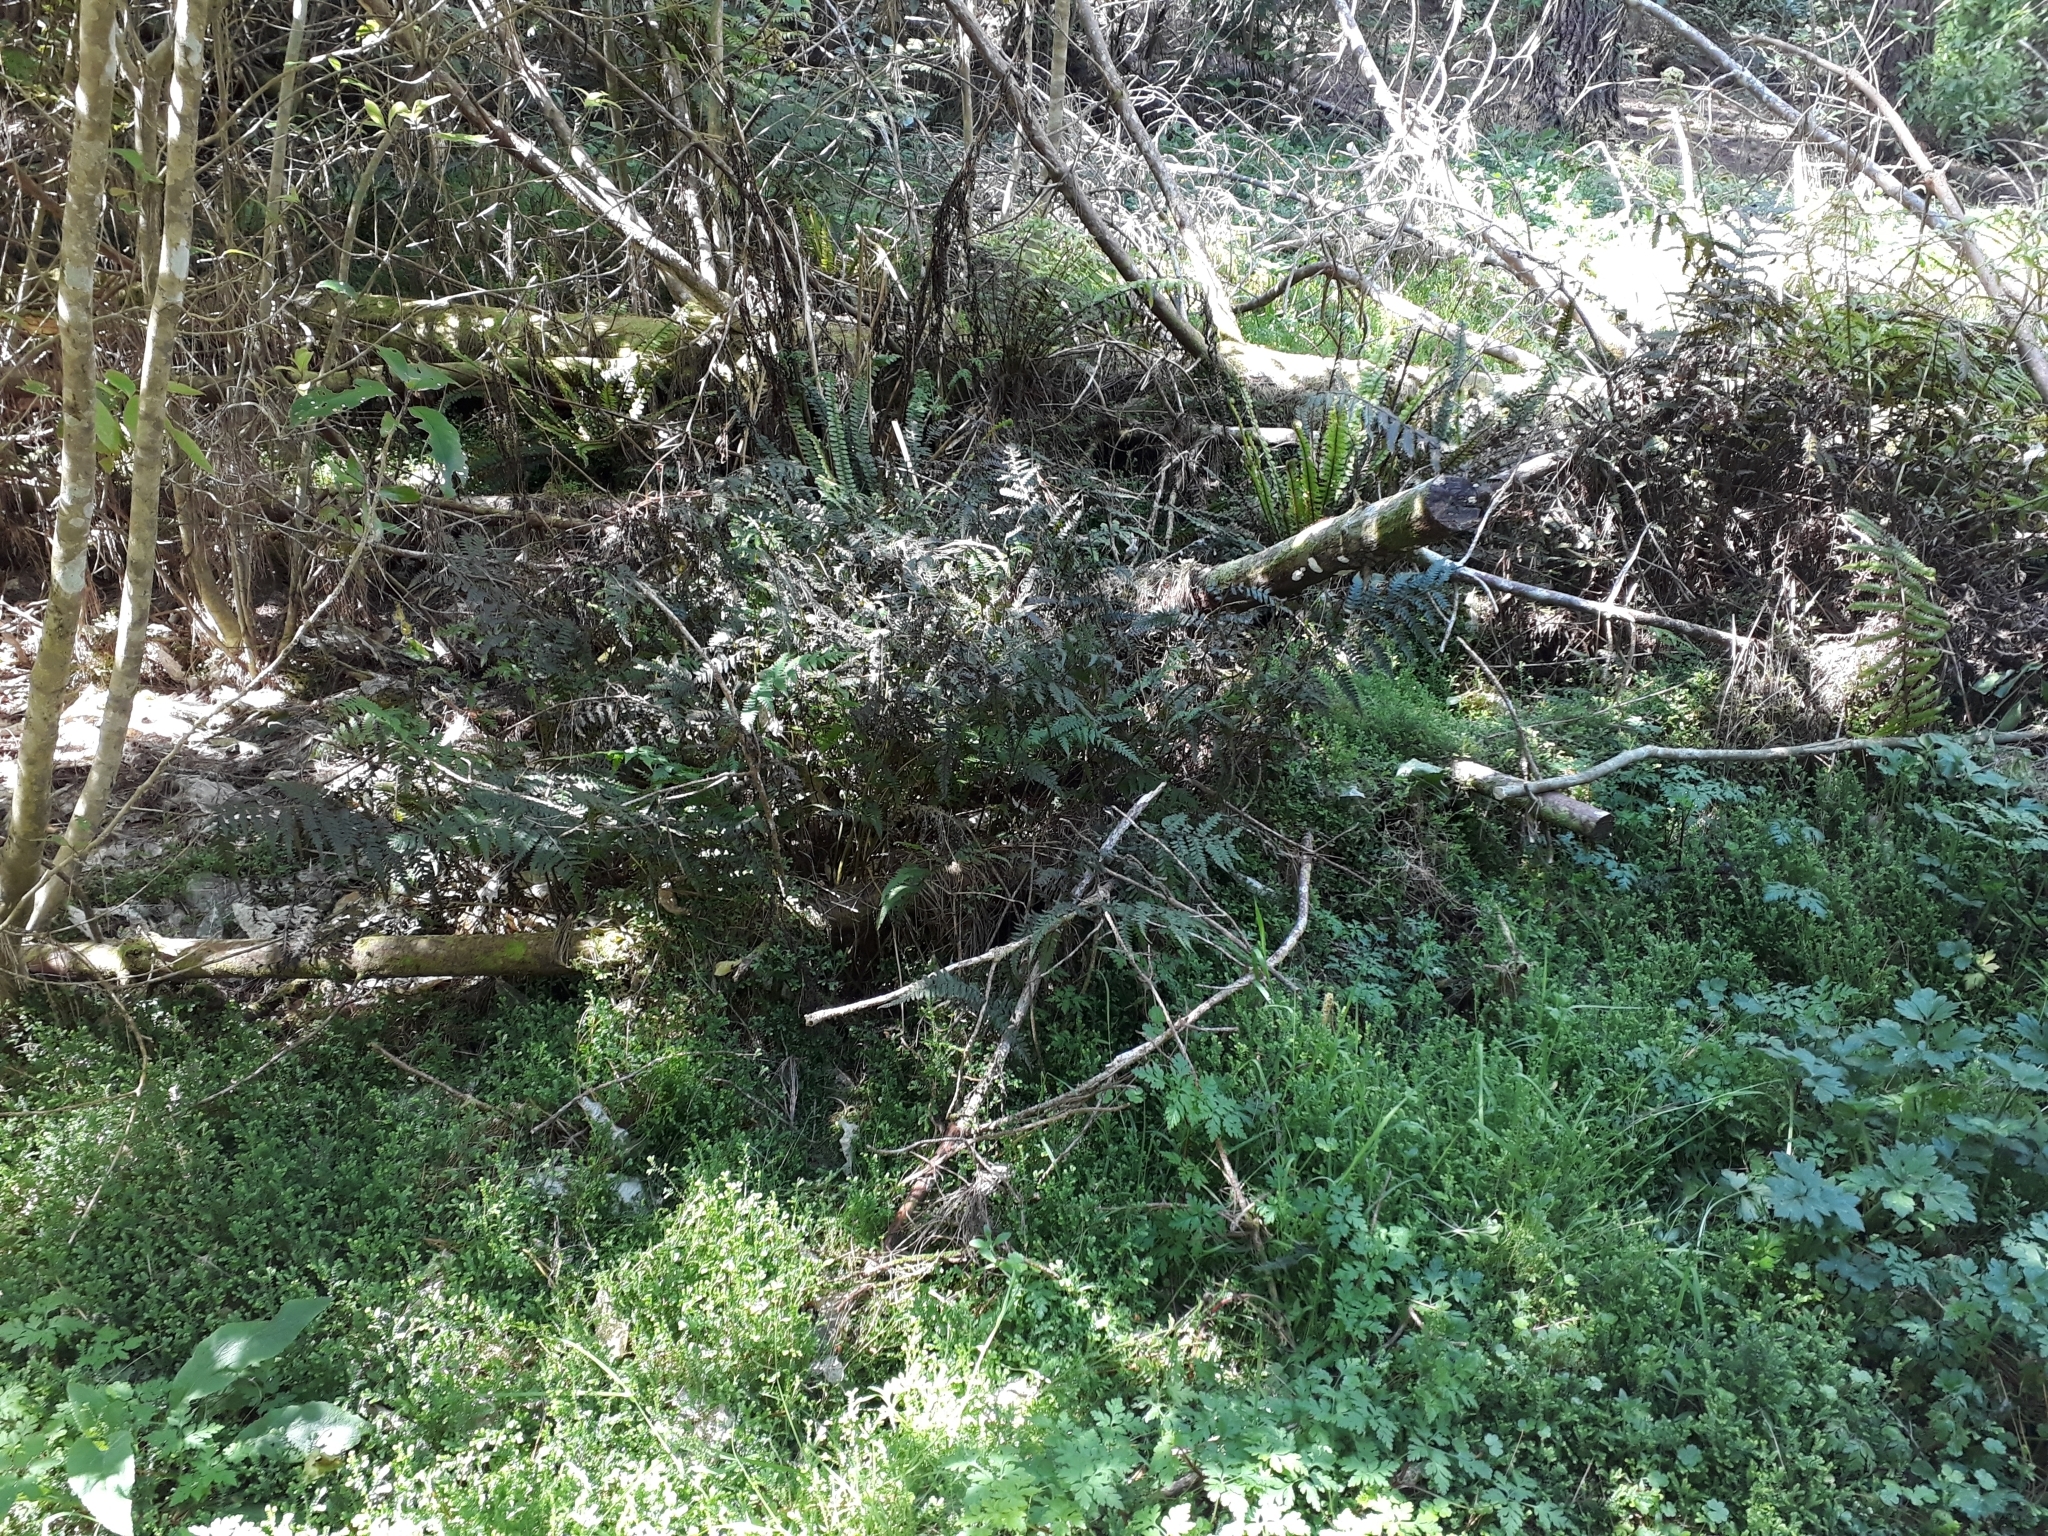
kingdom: Plantae
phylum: Tracheophyta
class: Polypodiopsida
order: Polypodiales
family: Athyriaceae
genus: Deparia
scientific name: Deparia petersenii
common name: Japanese false spleenwort
